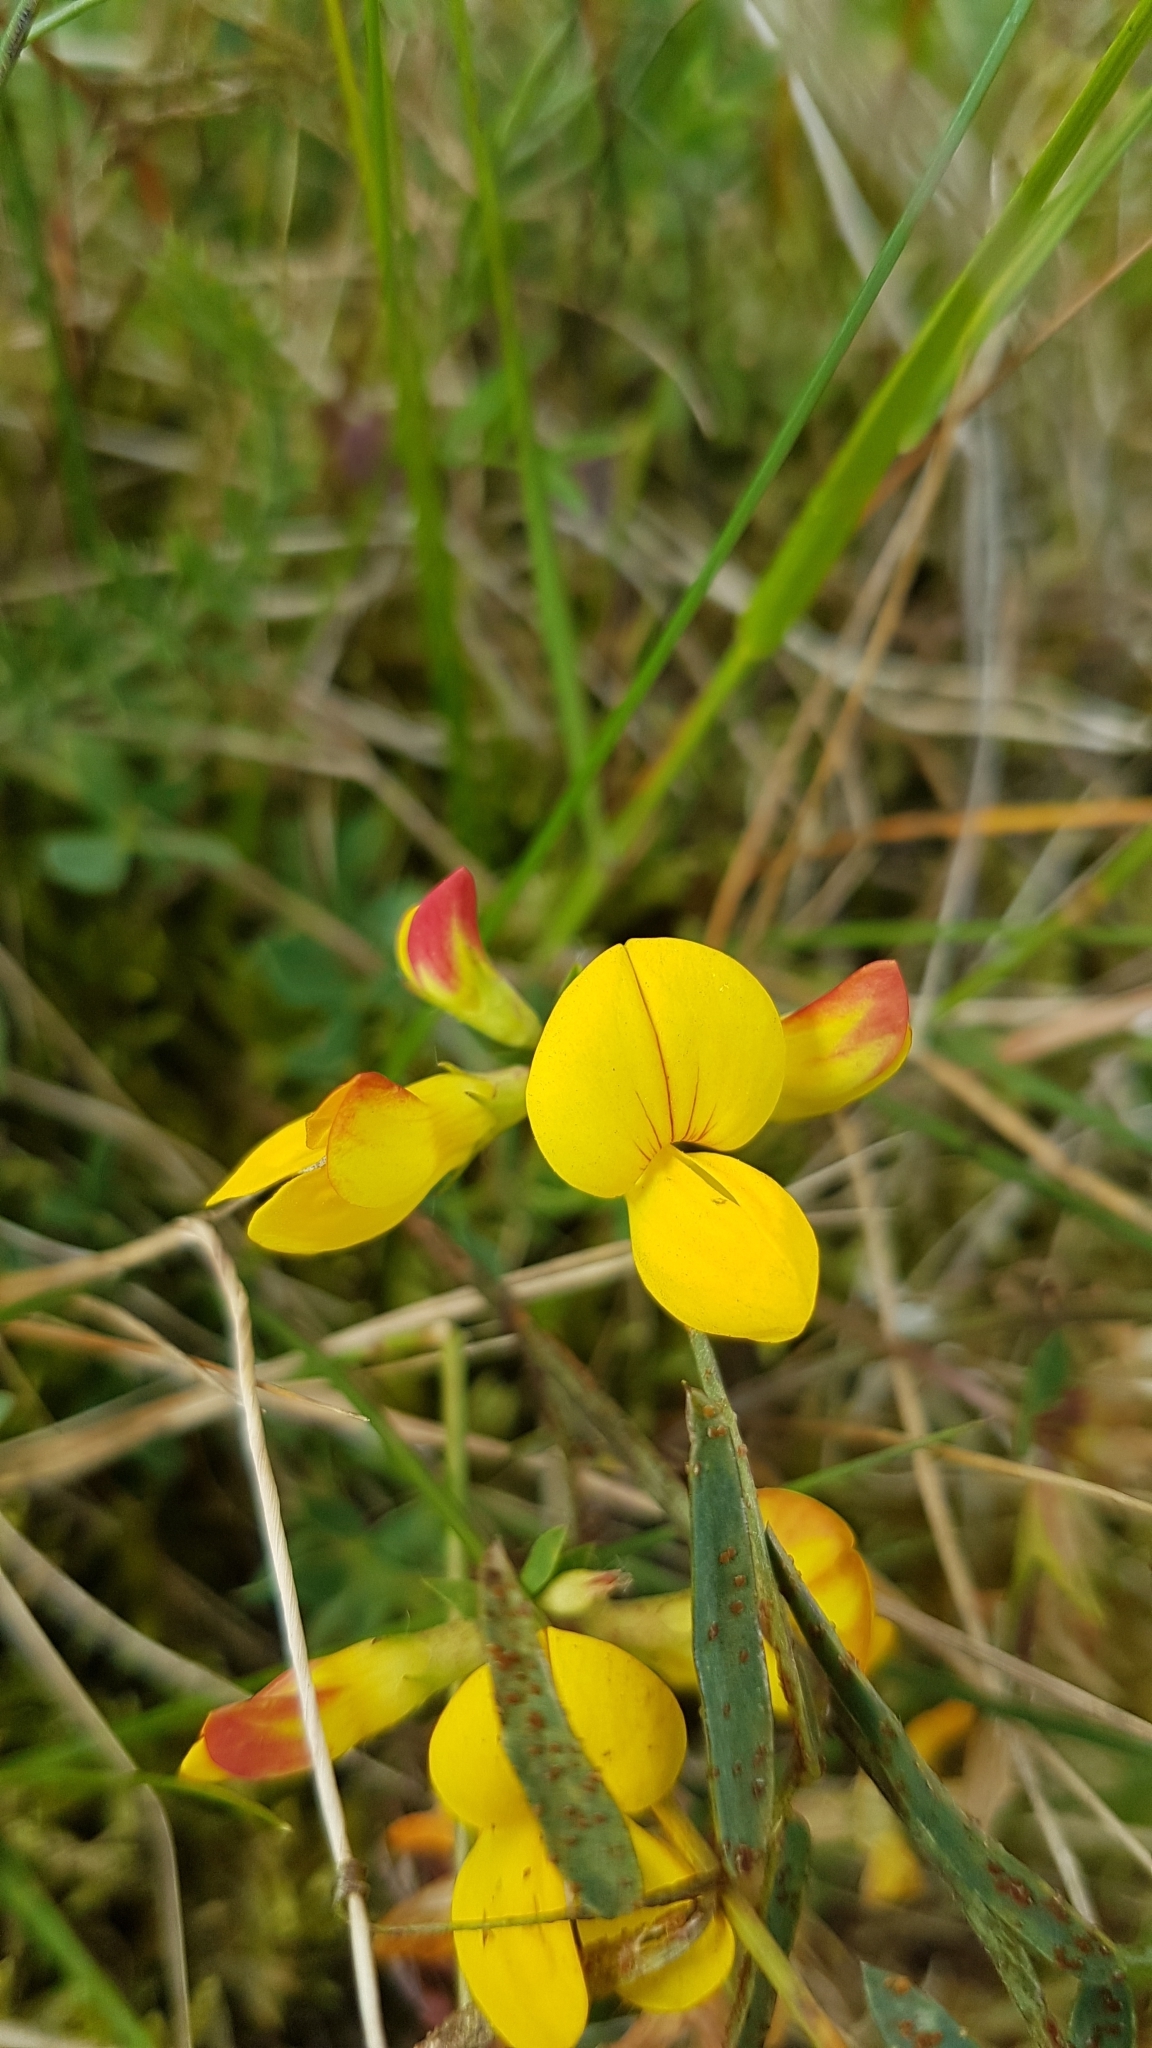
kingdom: Plantae
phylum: Tracheophyta
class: Magnoliopsida
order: Fabales
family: Fabaceae
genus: Lotus
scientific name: Lotus corniculatus
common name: Common bird's-foot-trefoil
